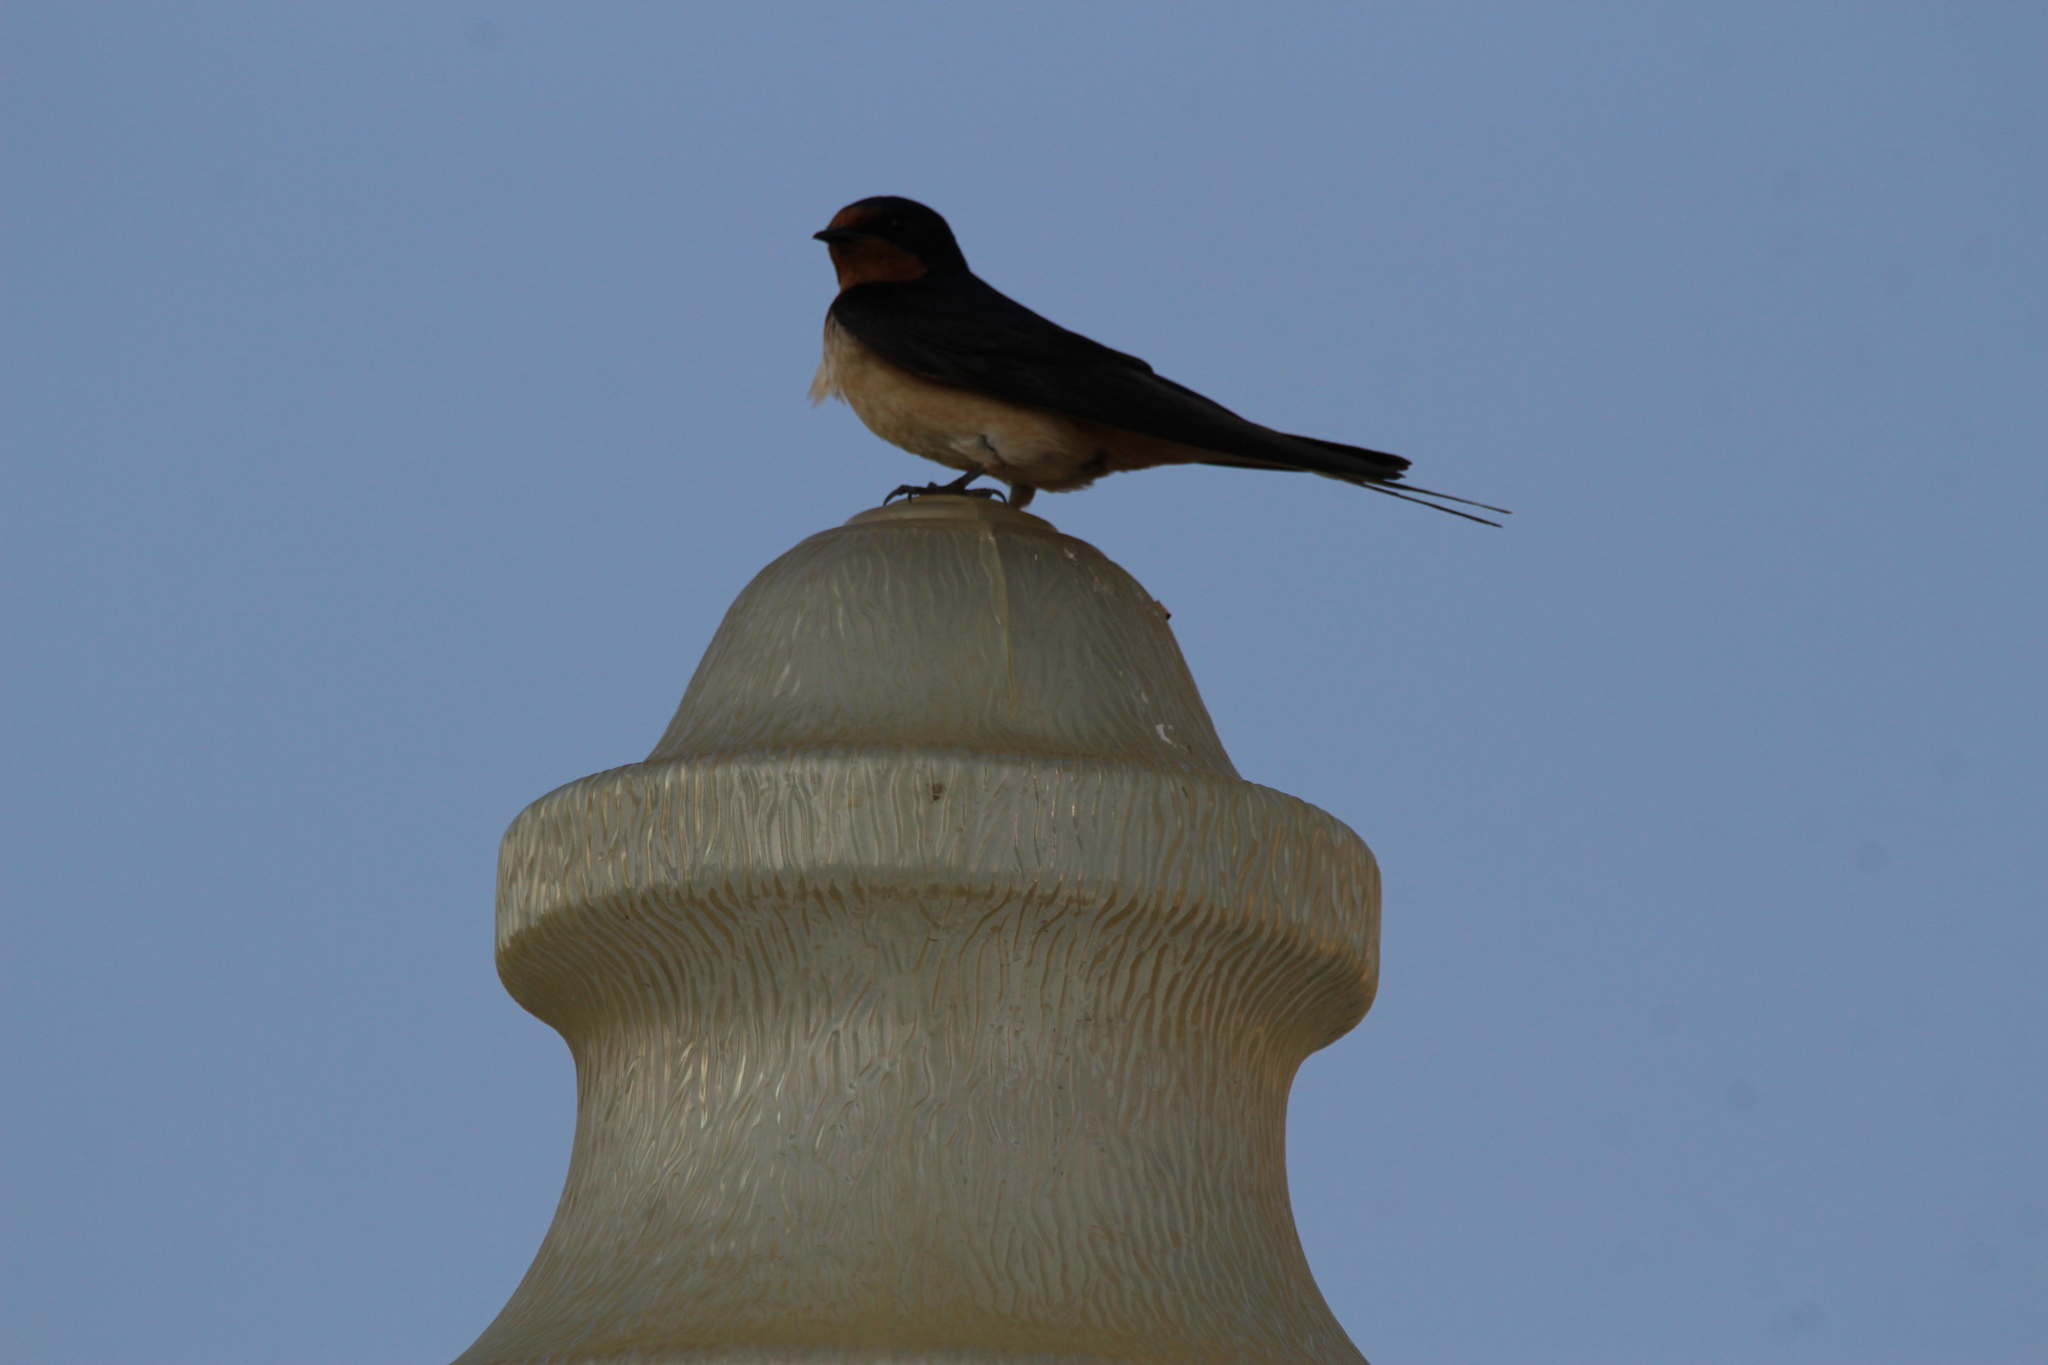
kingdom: Animalia
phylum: Chordata
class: Aves
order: Passeriformes
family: Hirundinidae
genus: Hirundo
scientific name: Hirundo rustica
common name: Barn swallow
